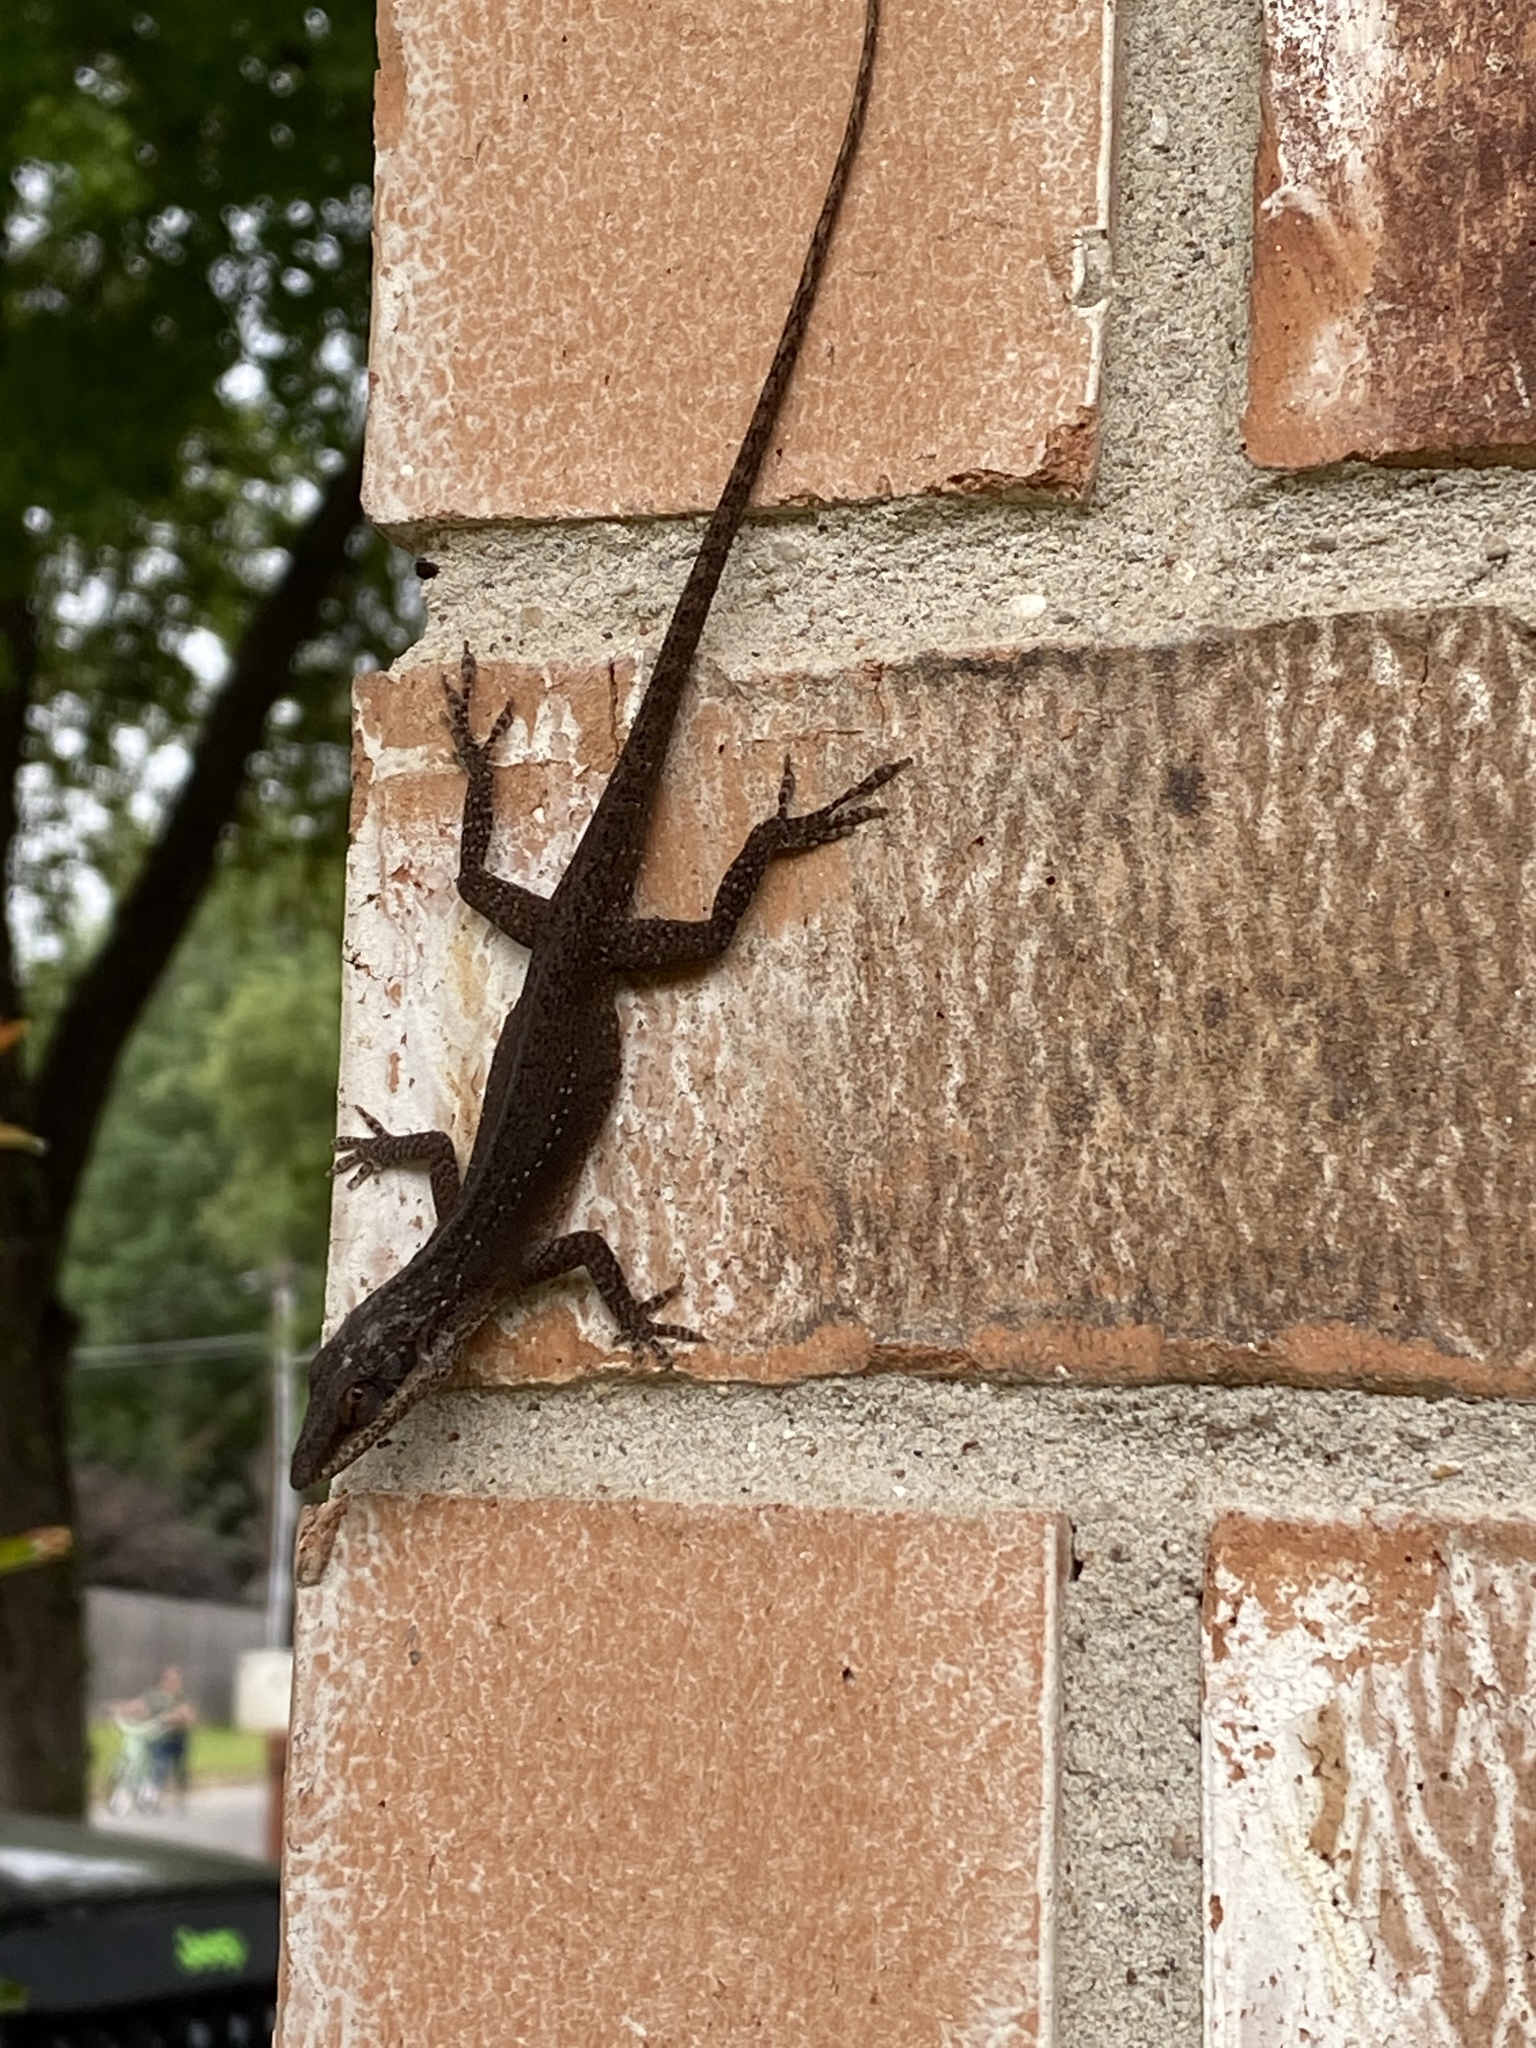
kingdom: Animalia
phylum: Chordata
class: Squamata
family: Dactyloidae
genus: Anolis
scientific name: Anolis carolinensis
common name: Green anole
